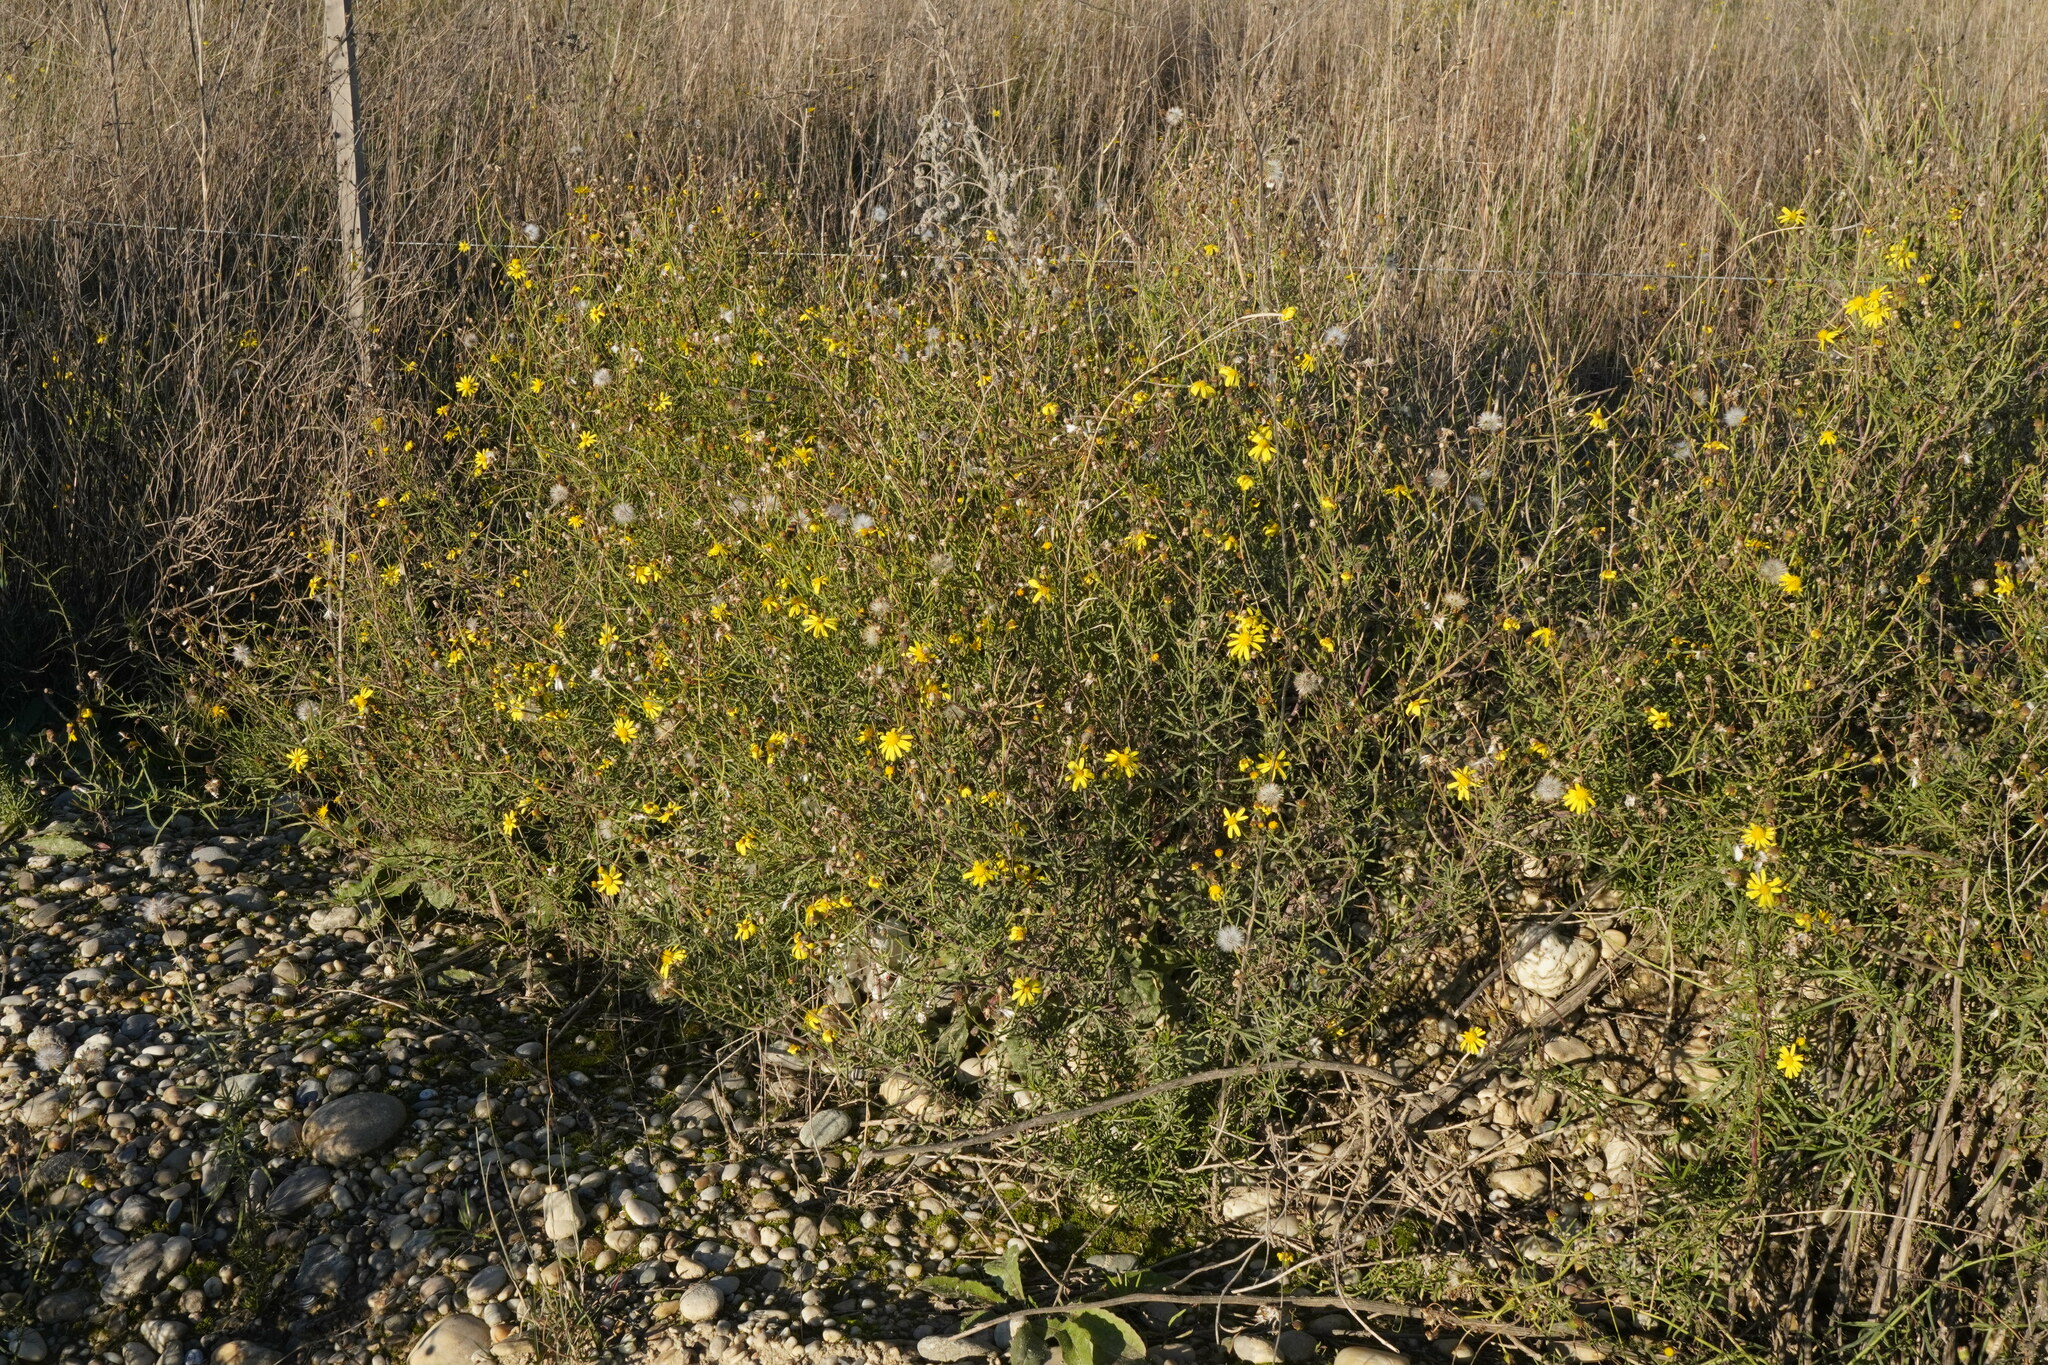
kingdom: Plantae
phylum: Tracheophyta
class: Magnoliopsida
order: Asterales
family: Asteraceae
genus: Senecio
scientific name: Senecio inaequidens
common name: Narrow-leaved ragwort
